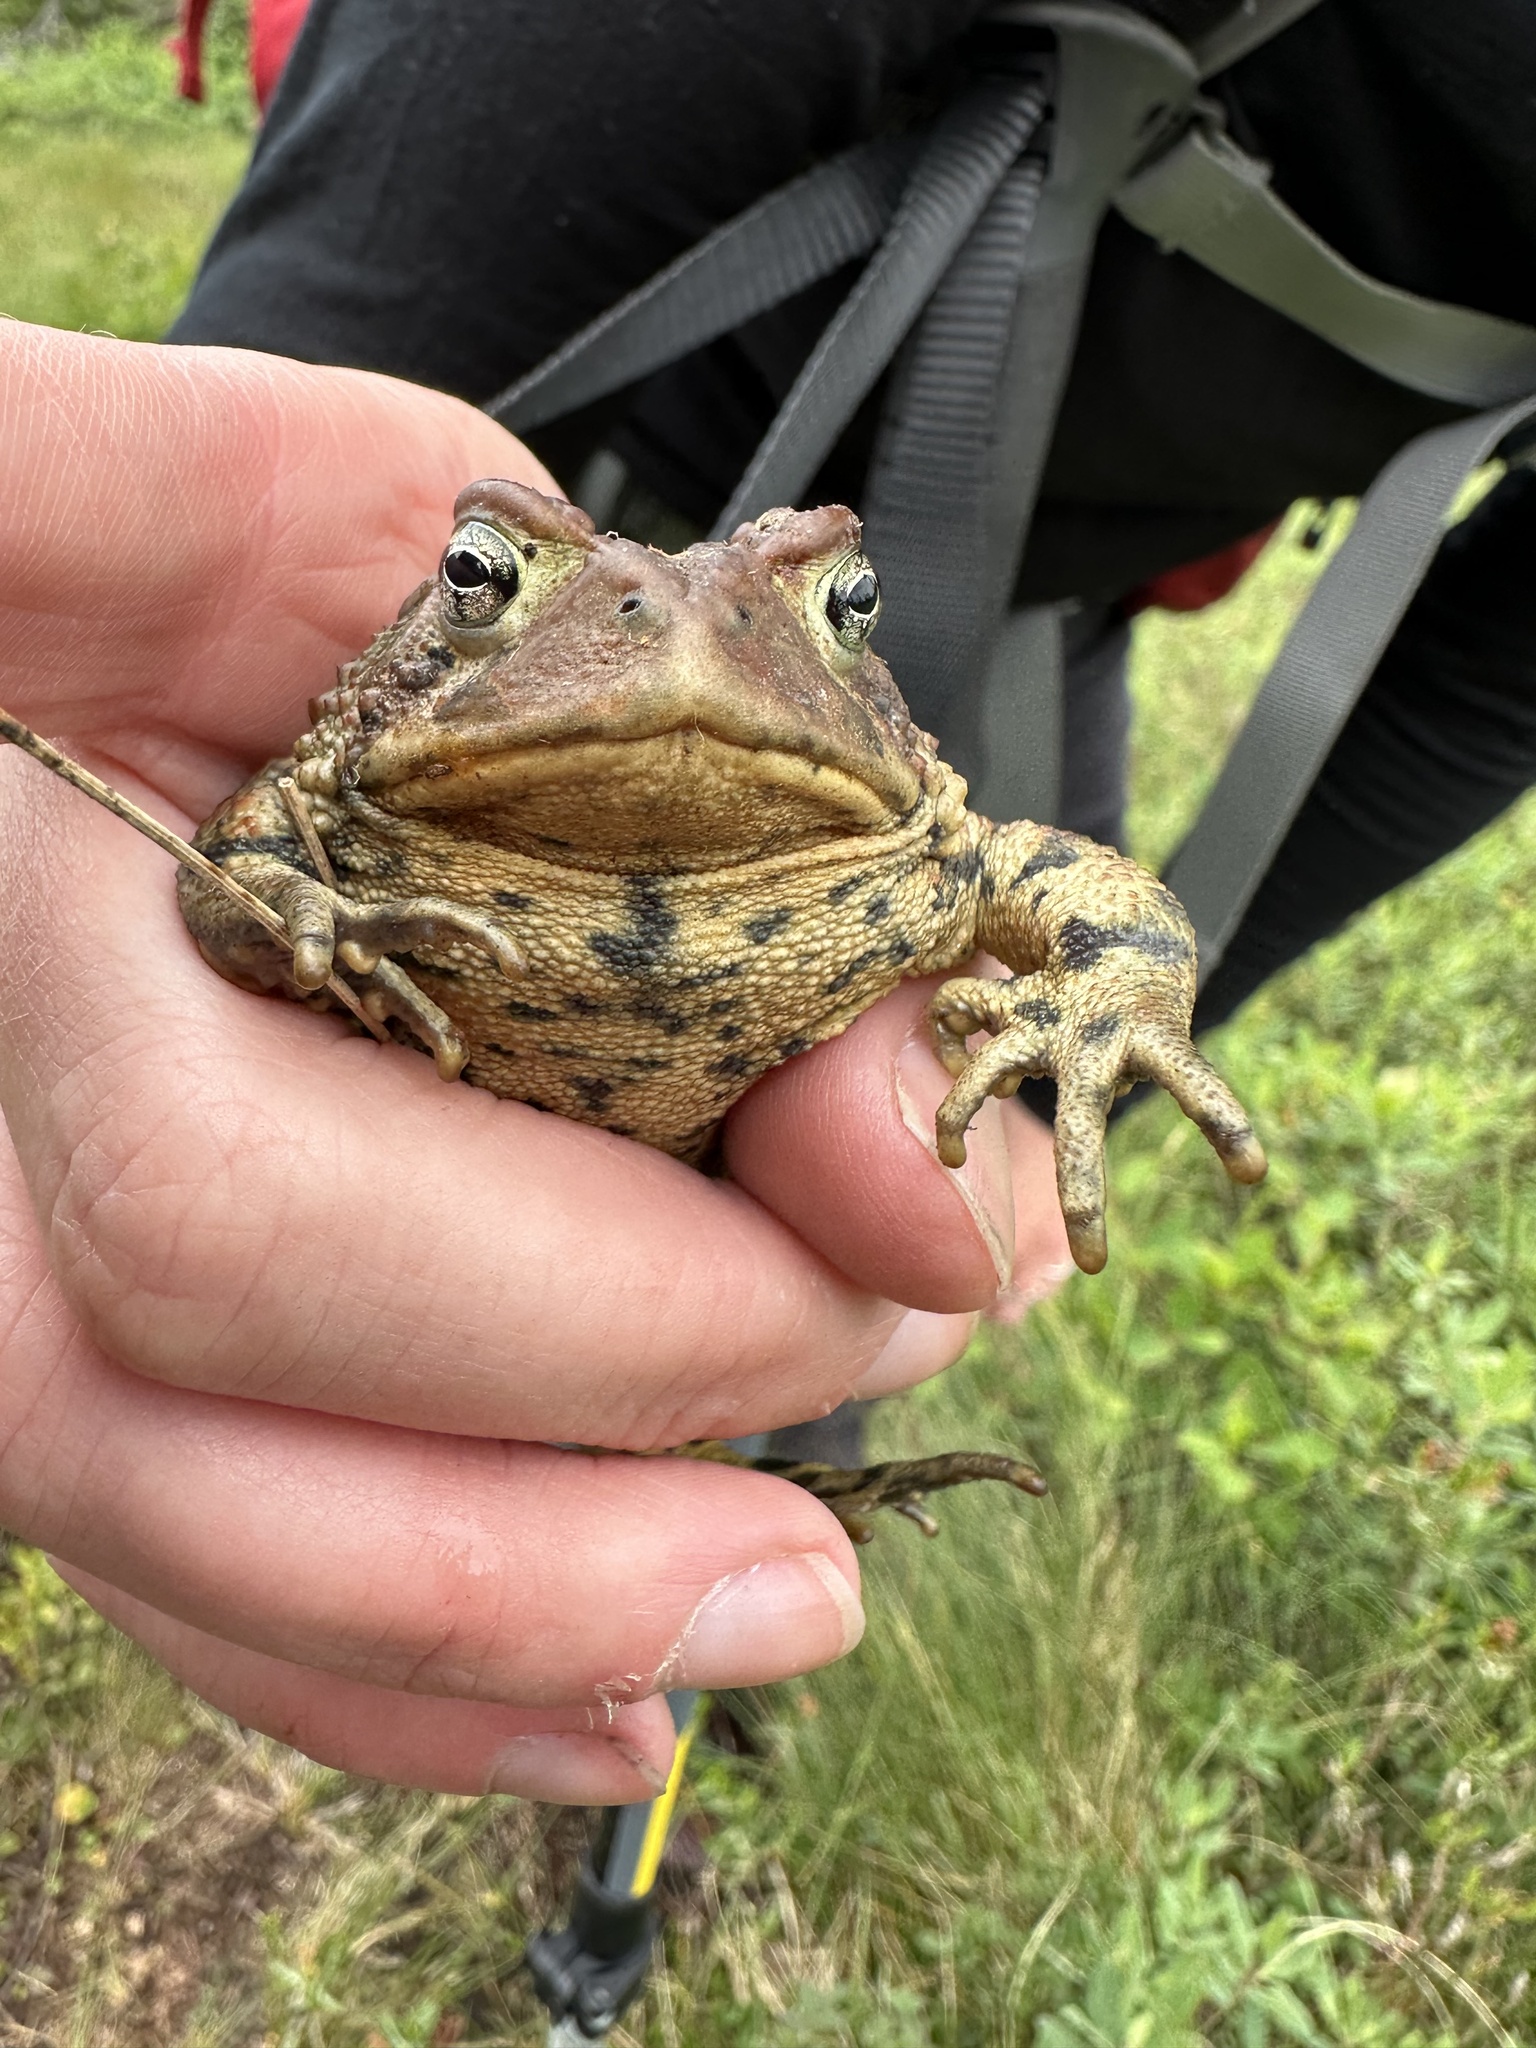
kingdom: Animalia
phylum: Chordata
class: Amphibia
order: Anura
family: Bufonidae
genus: Anaxyrus
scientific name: Anaxyrus americanus
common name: American toad
